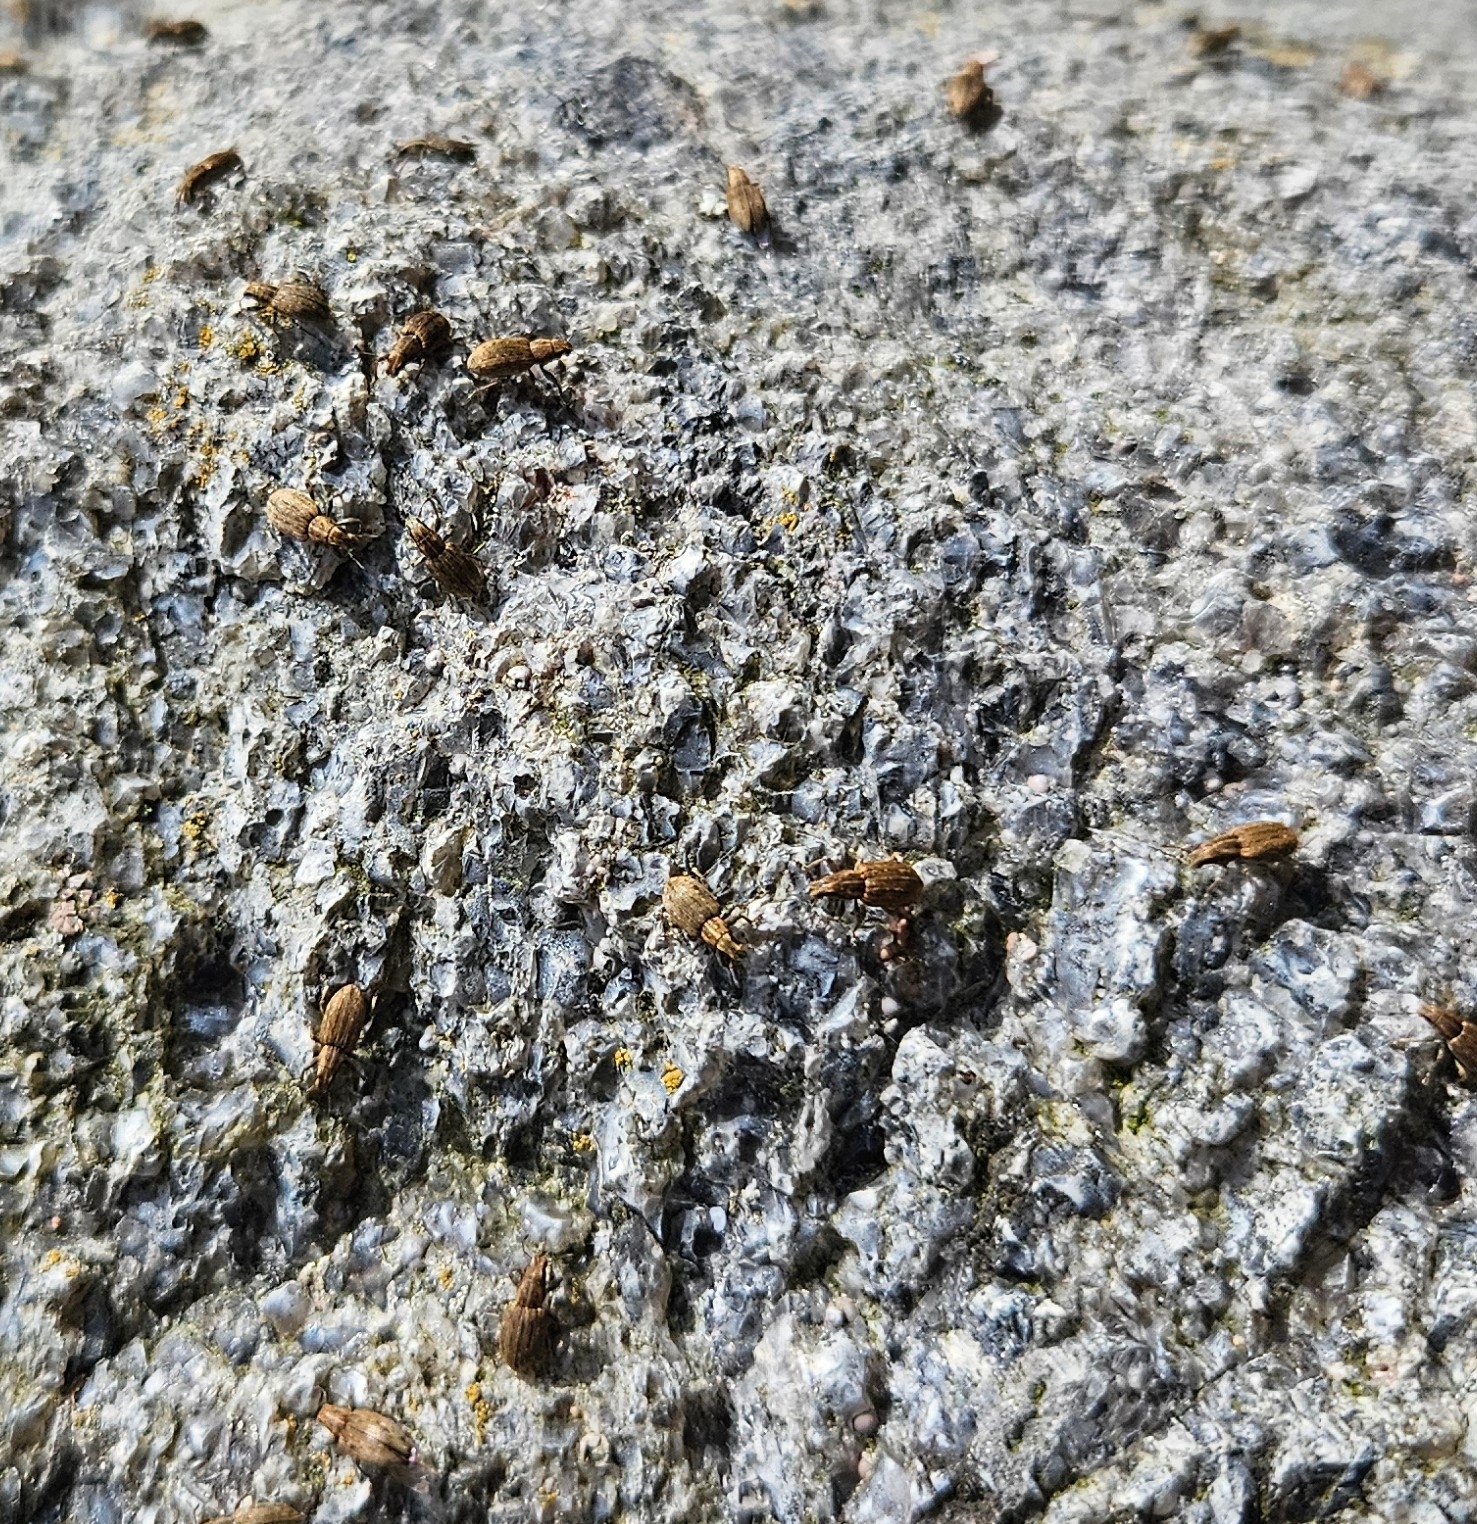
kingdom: Animalia
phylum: Arthropoda
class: Insecta
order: Coleoptera
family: Curculionidae
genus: Sitona
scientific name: Sitona obsoletus
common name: Weevil
